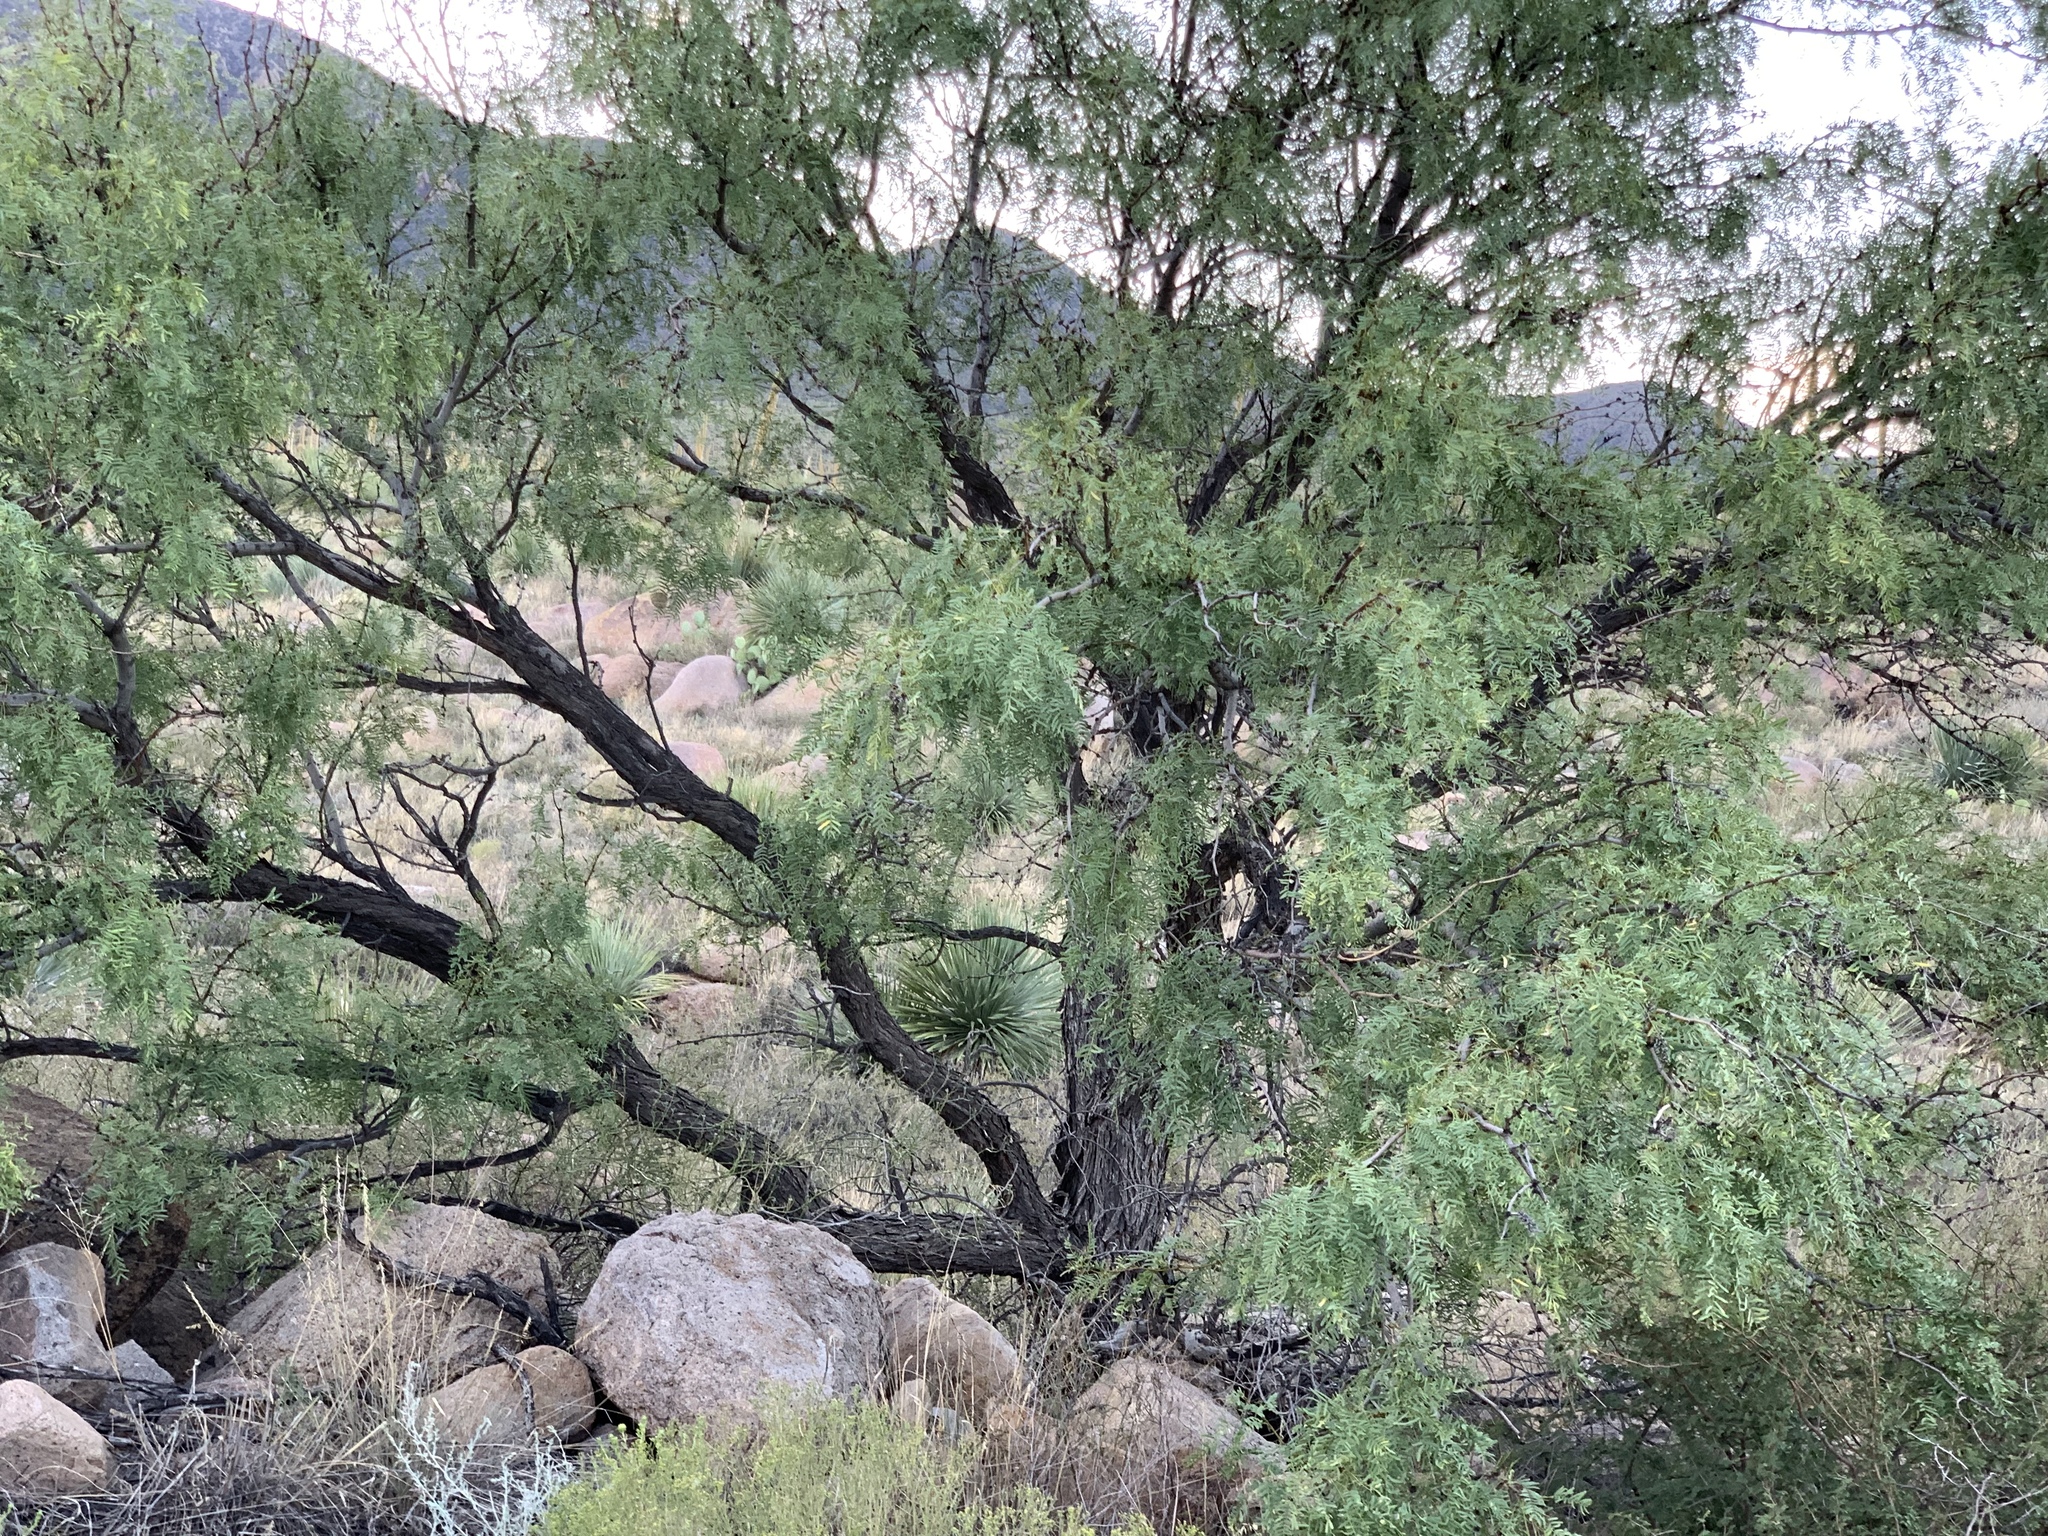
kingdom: Plantae
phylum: Tracheophyta
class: Magnoliopsida
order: Fabales
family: Fabaceae
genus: Prosopis
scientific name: Prosopis glandulosa
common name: Honey mesquite
